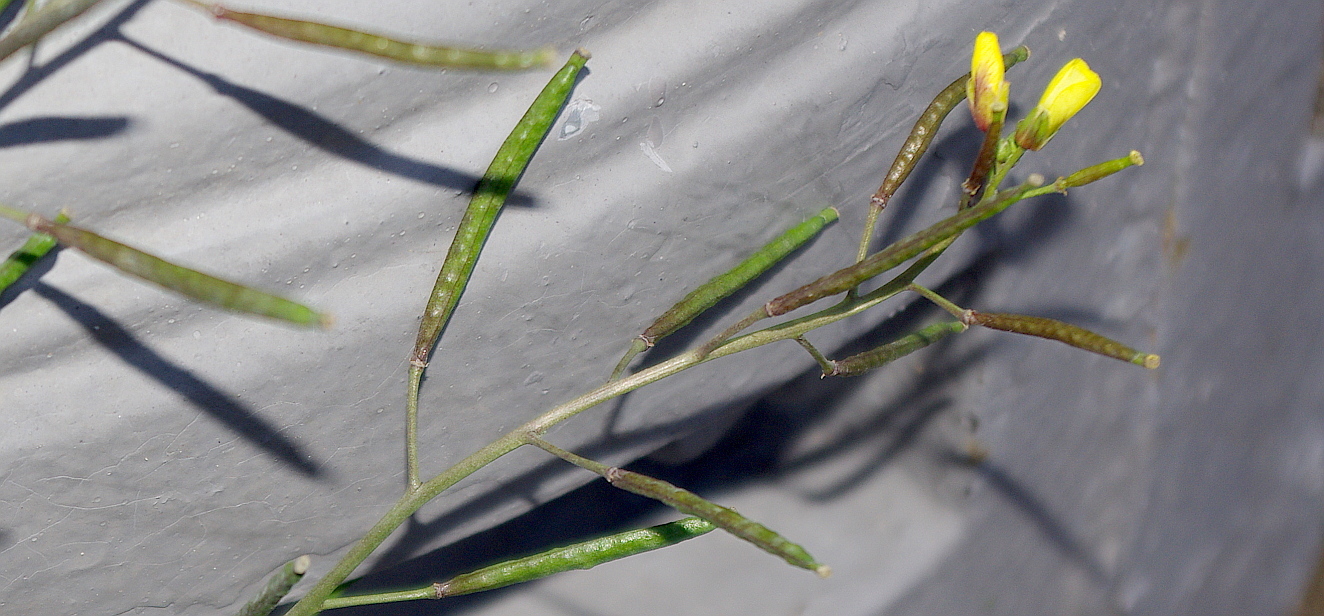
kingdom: Plantae
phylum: Tracheophyta
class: Magnoliopsida
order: Brassicales
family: Brassicaceae
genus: Diplotaxis
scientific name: Diplotaxis muralis
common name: Annual wall-rocket
